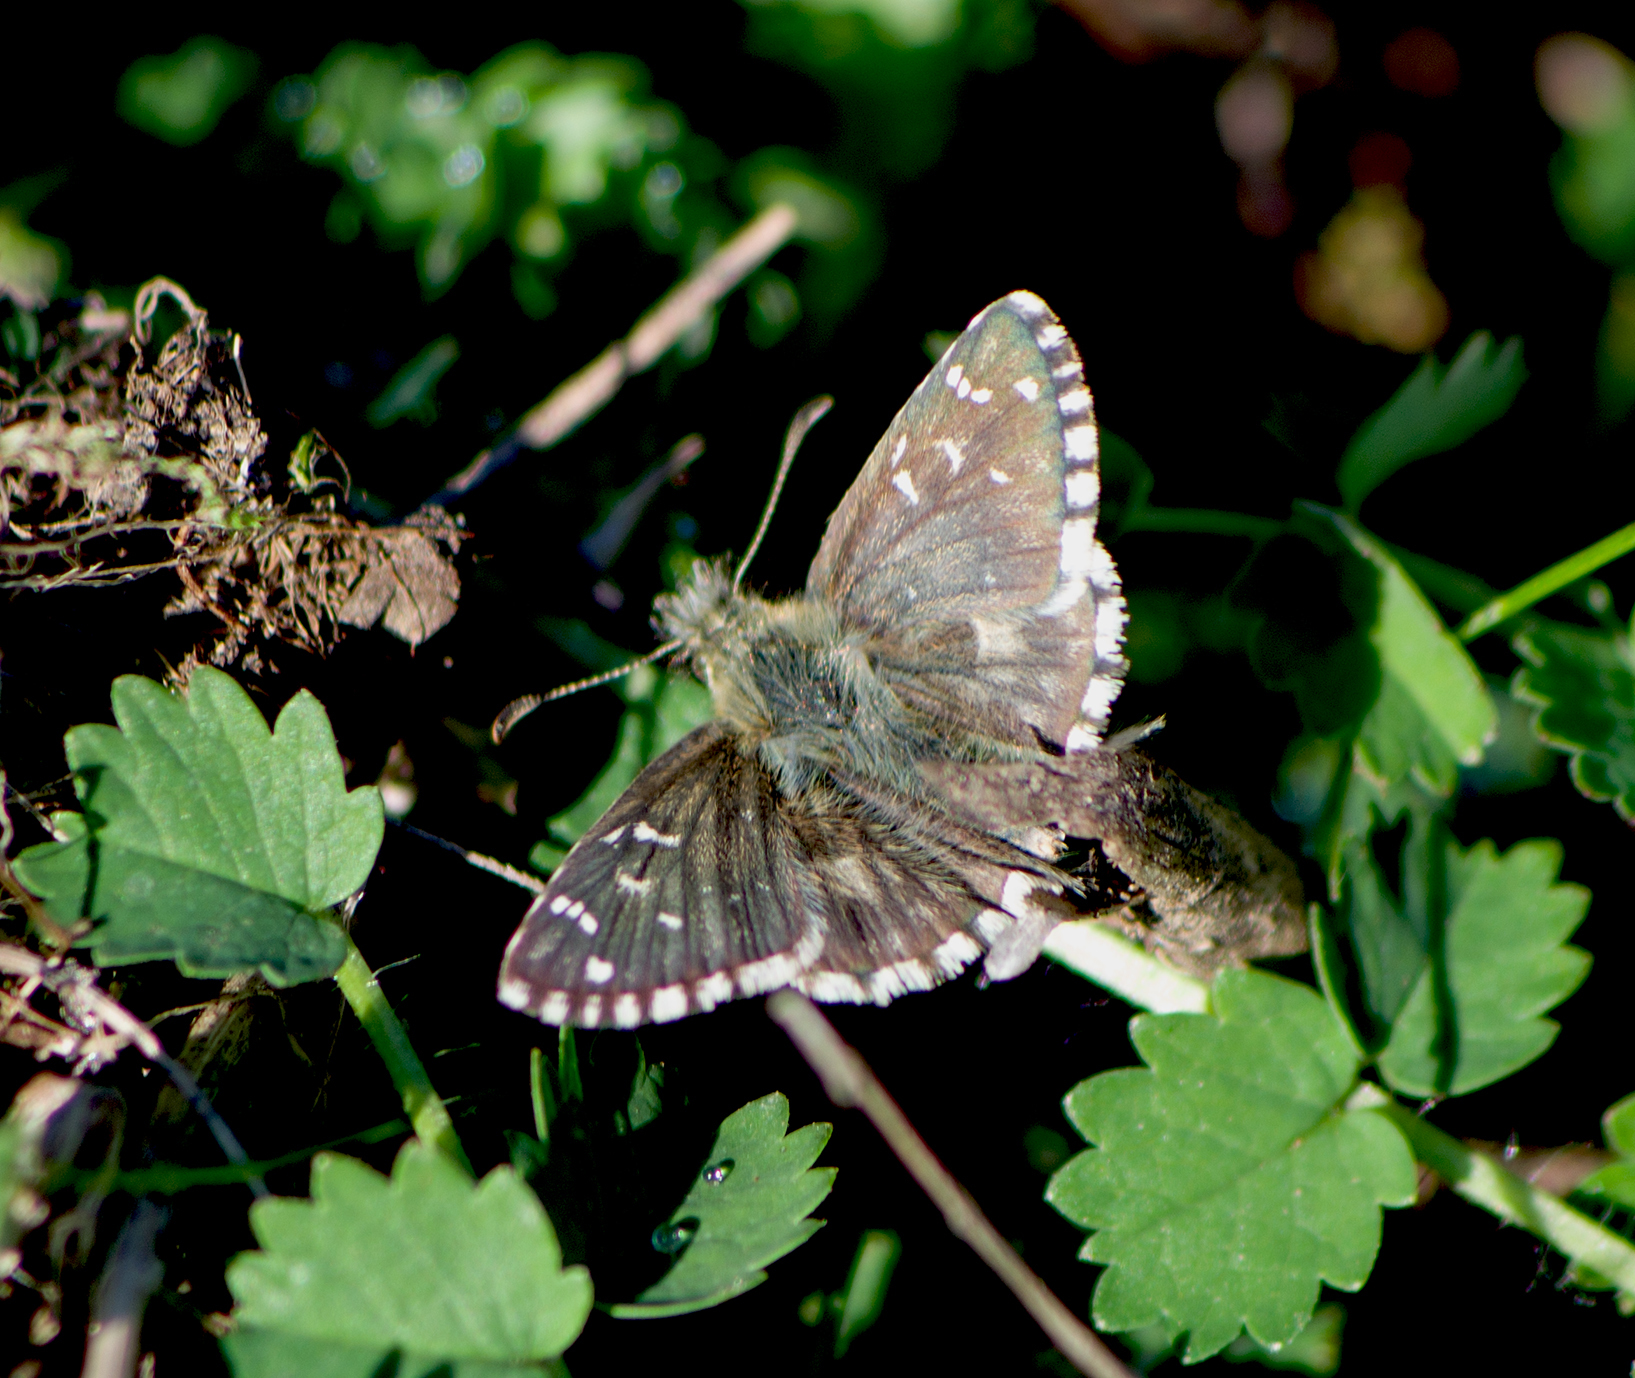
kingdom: Animalia
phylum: Arthropoda
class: Insecta
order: Lepidoptera
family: Hesperiidae
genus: Pyrgus
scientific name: Pyrgus armoricanus
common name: Oberthür's grizzled skipper
